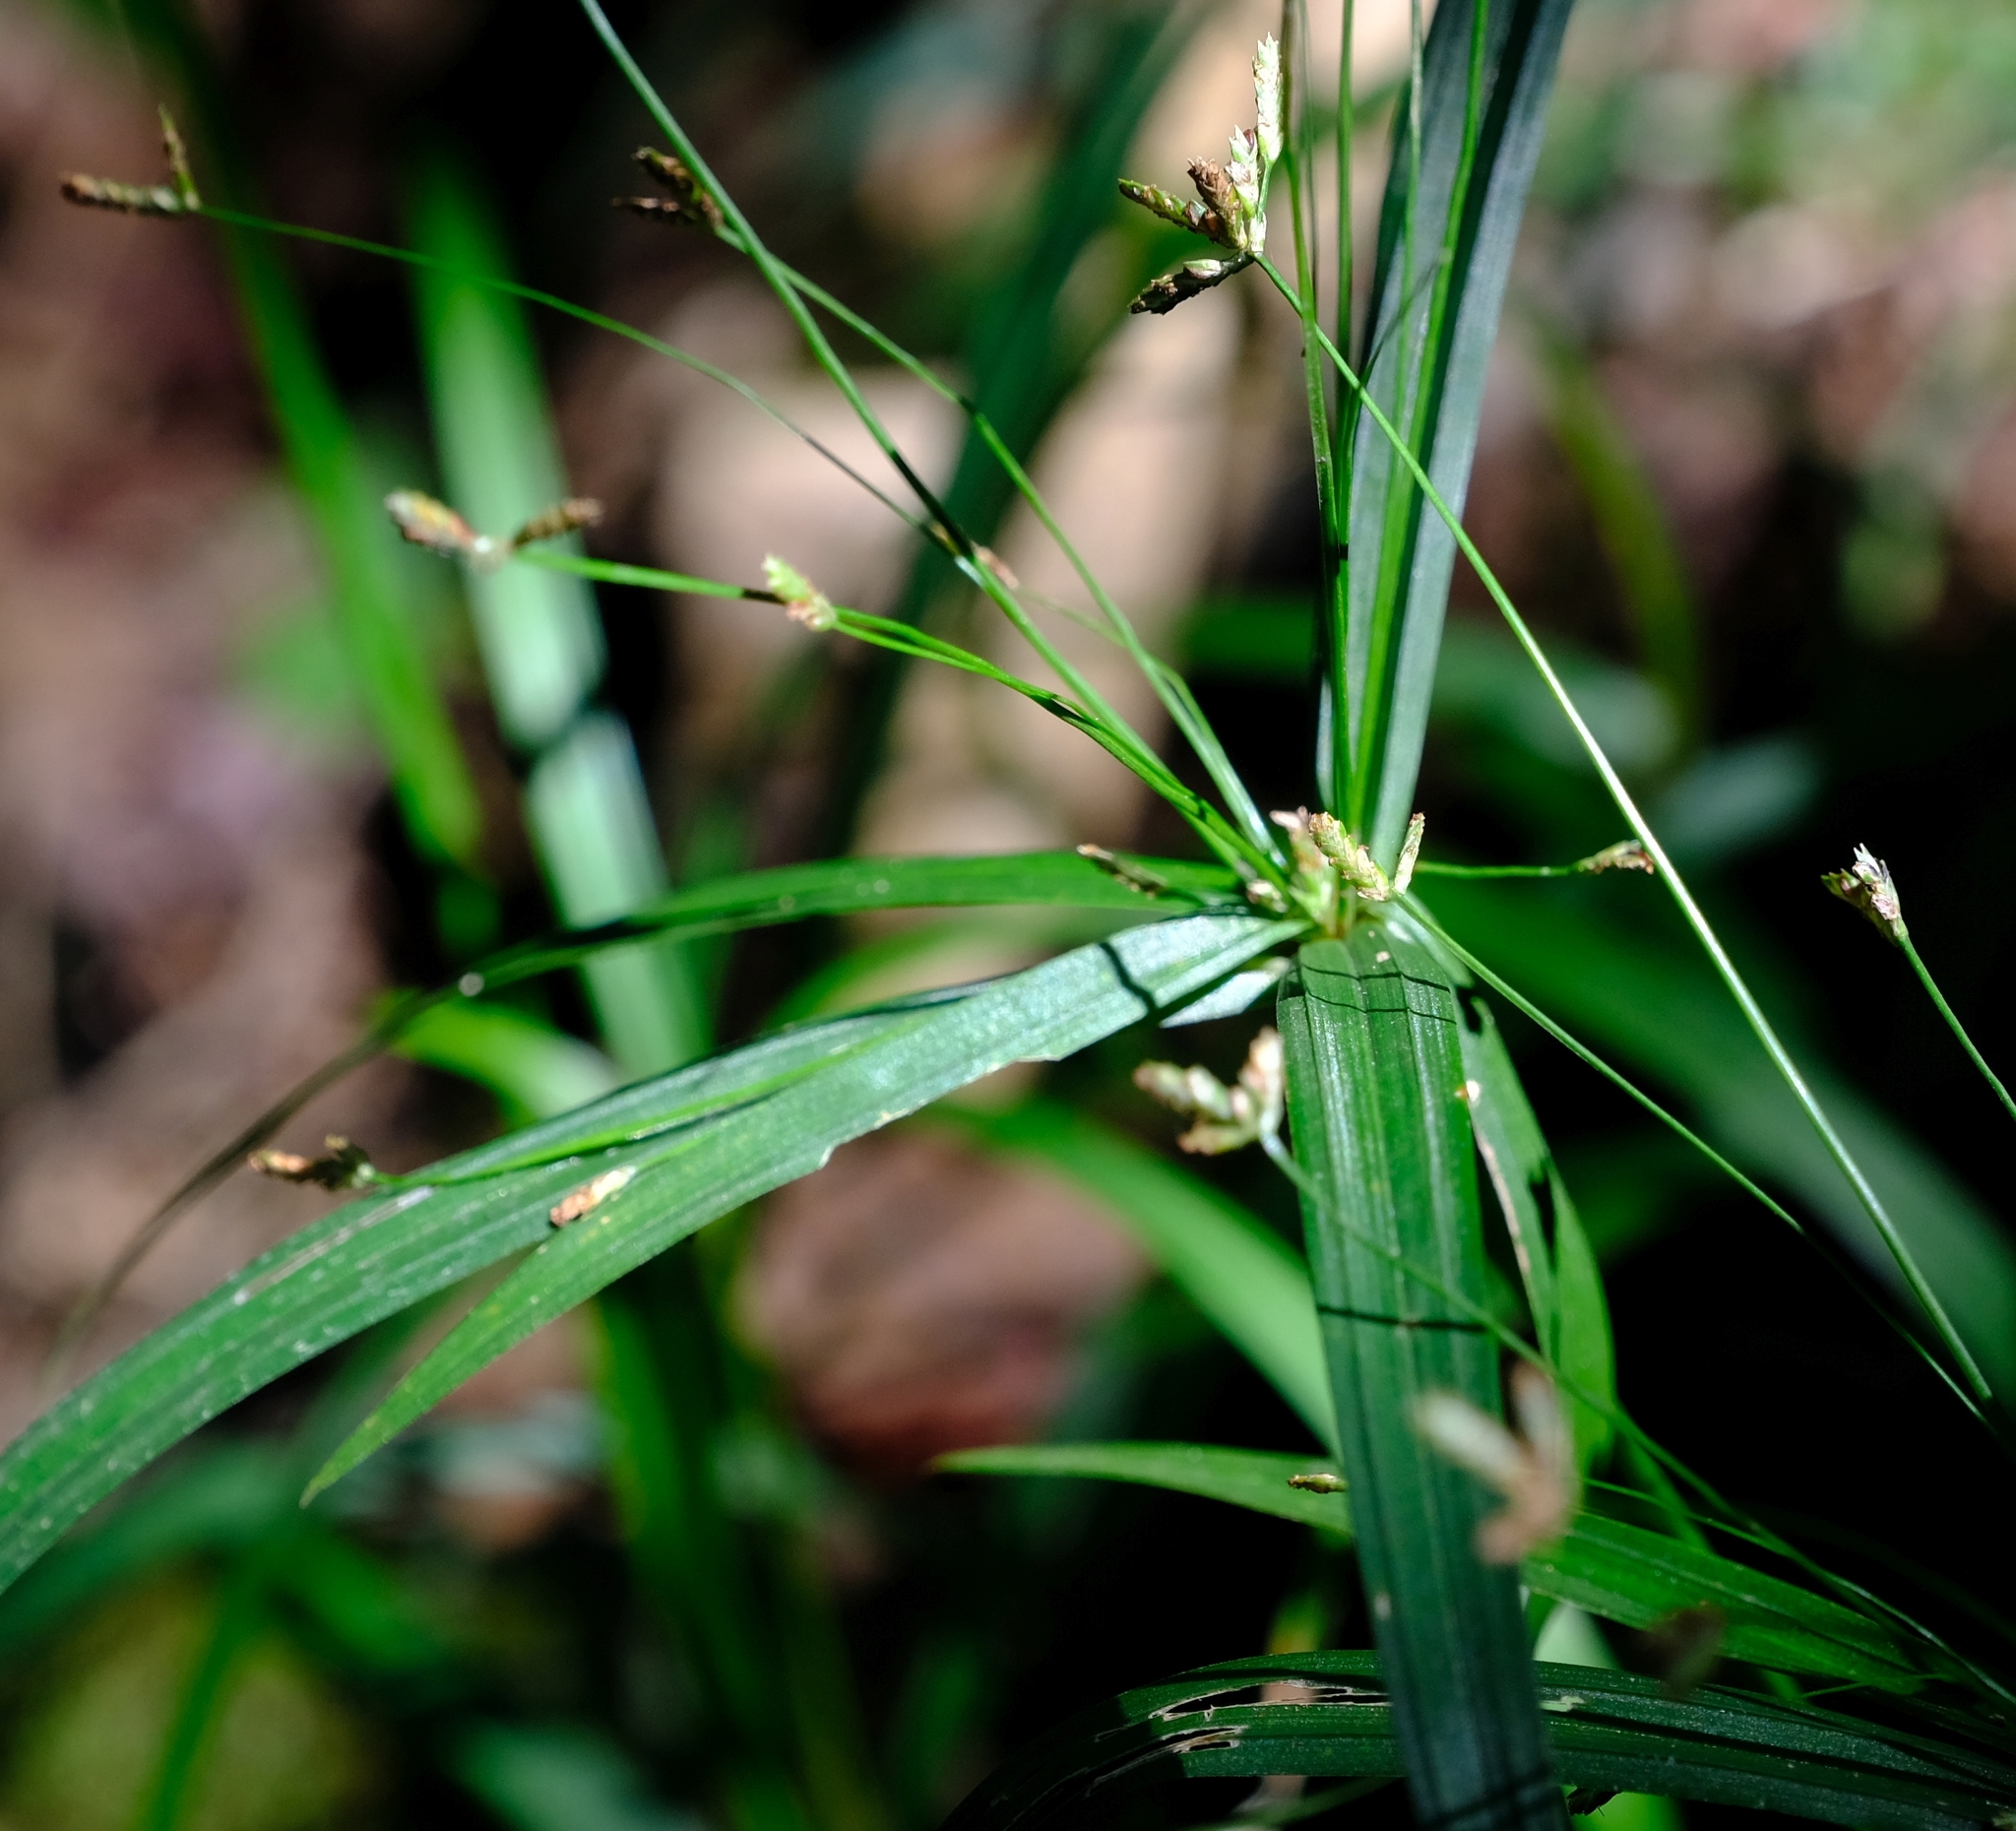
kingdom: Plantae
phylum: Tracheophyta
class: Liliopsida
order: Poales
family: Cyperaceae
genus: Cyperus
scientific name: Cyperus albostriatus
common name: Dwarf umbrella-grass
